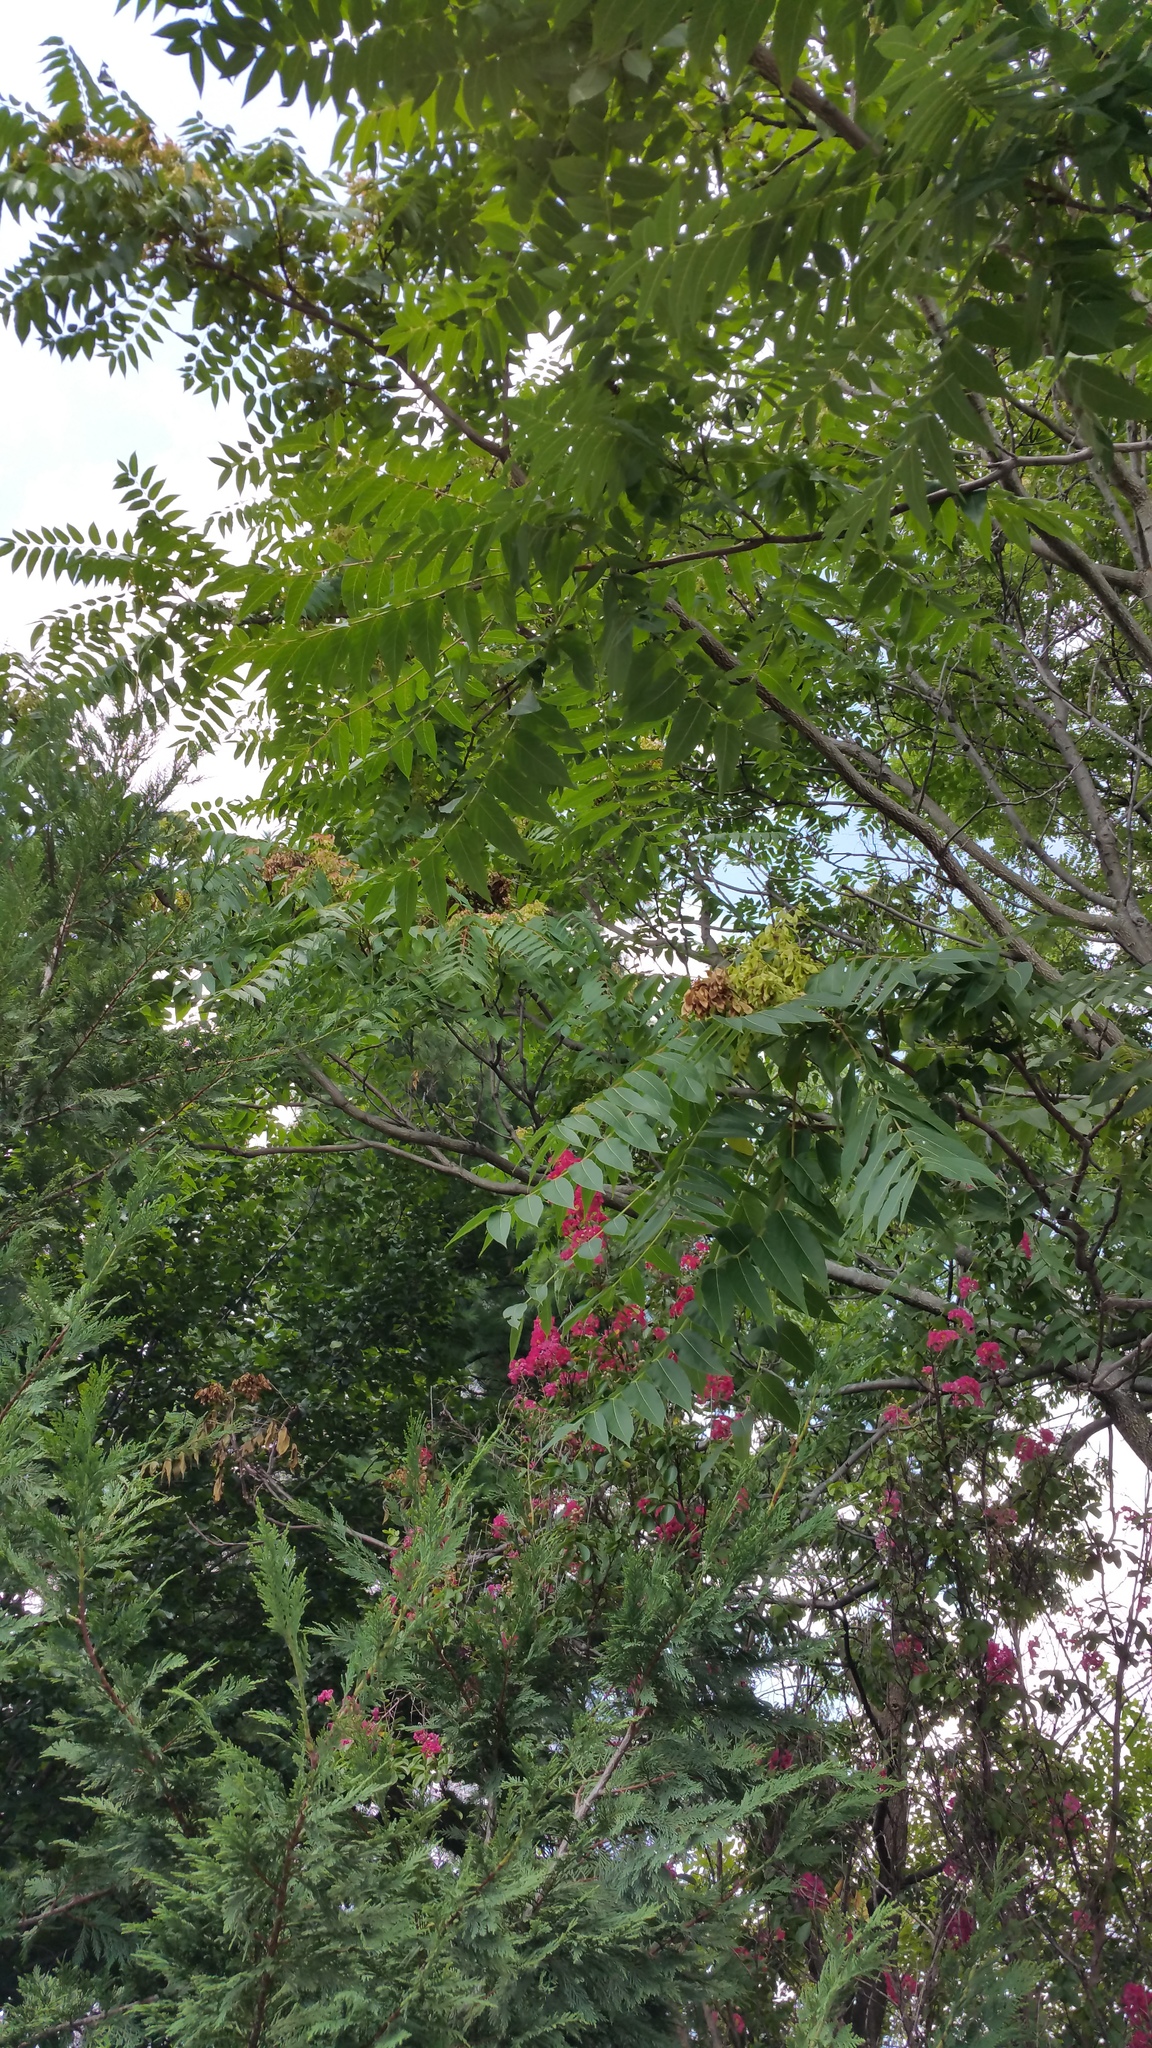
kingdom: Plantae
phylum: Tracheophyta
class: Magnoliopsida
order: Sapindales
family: Simaroubaceae
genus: Ailanthus
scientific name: Ailanthus altissima
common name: Tree-of-heaven
